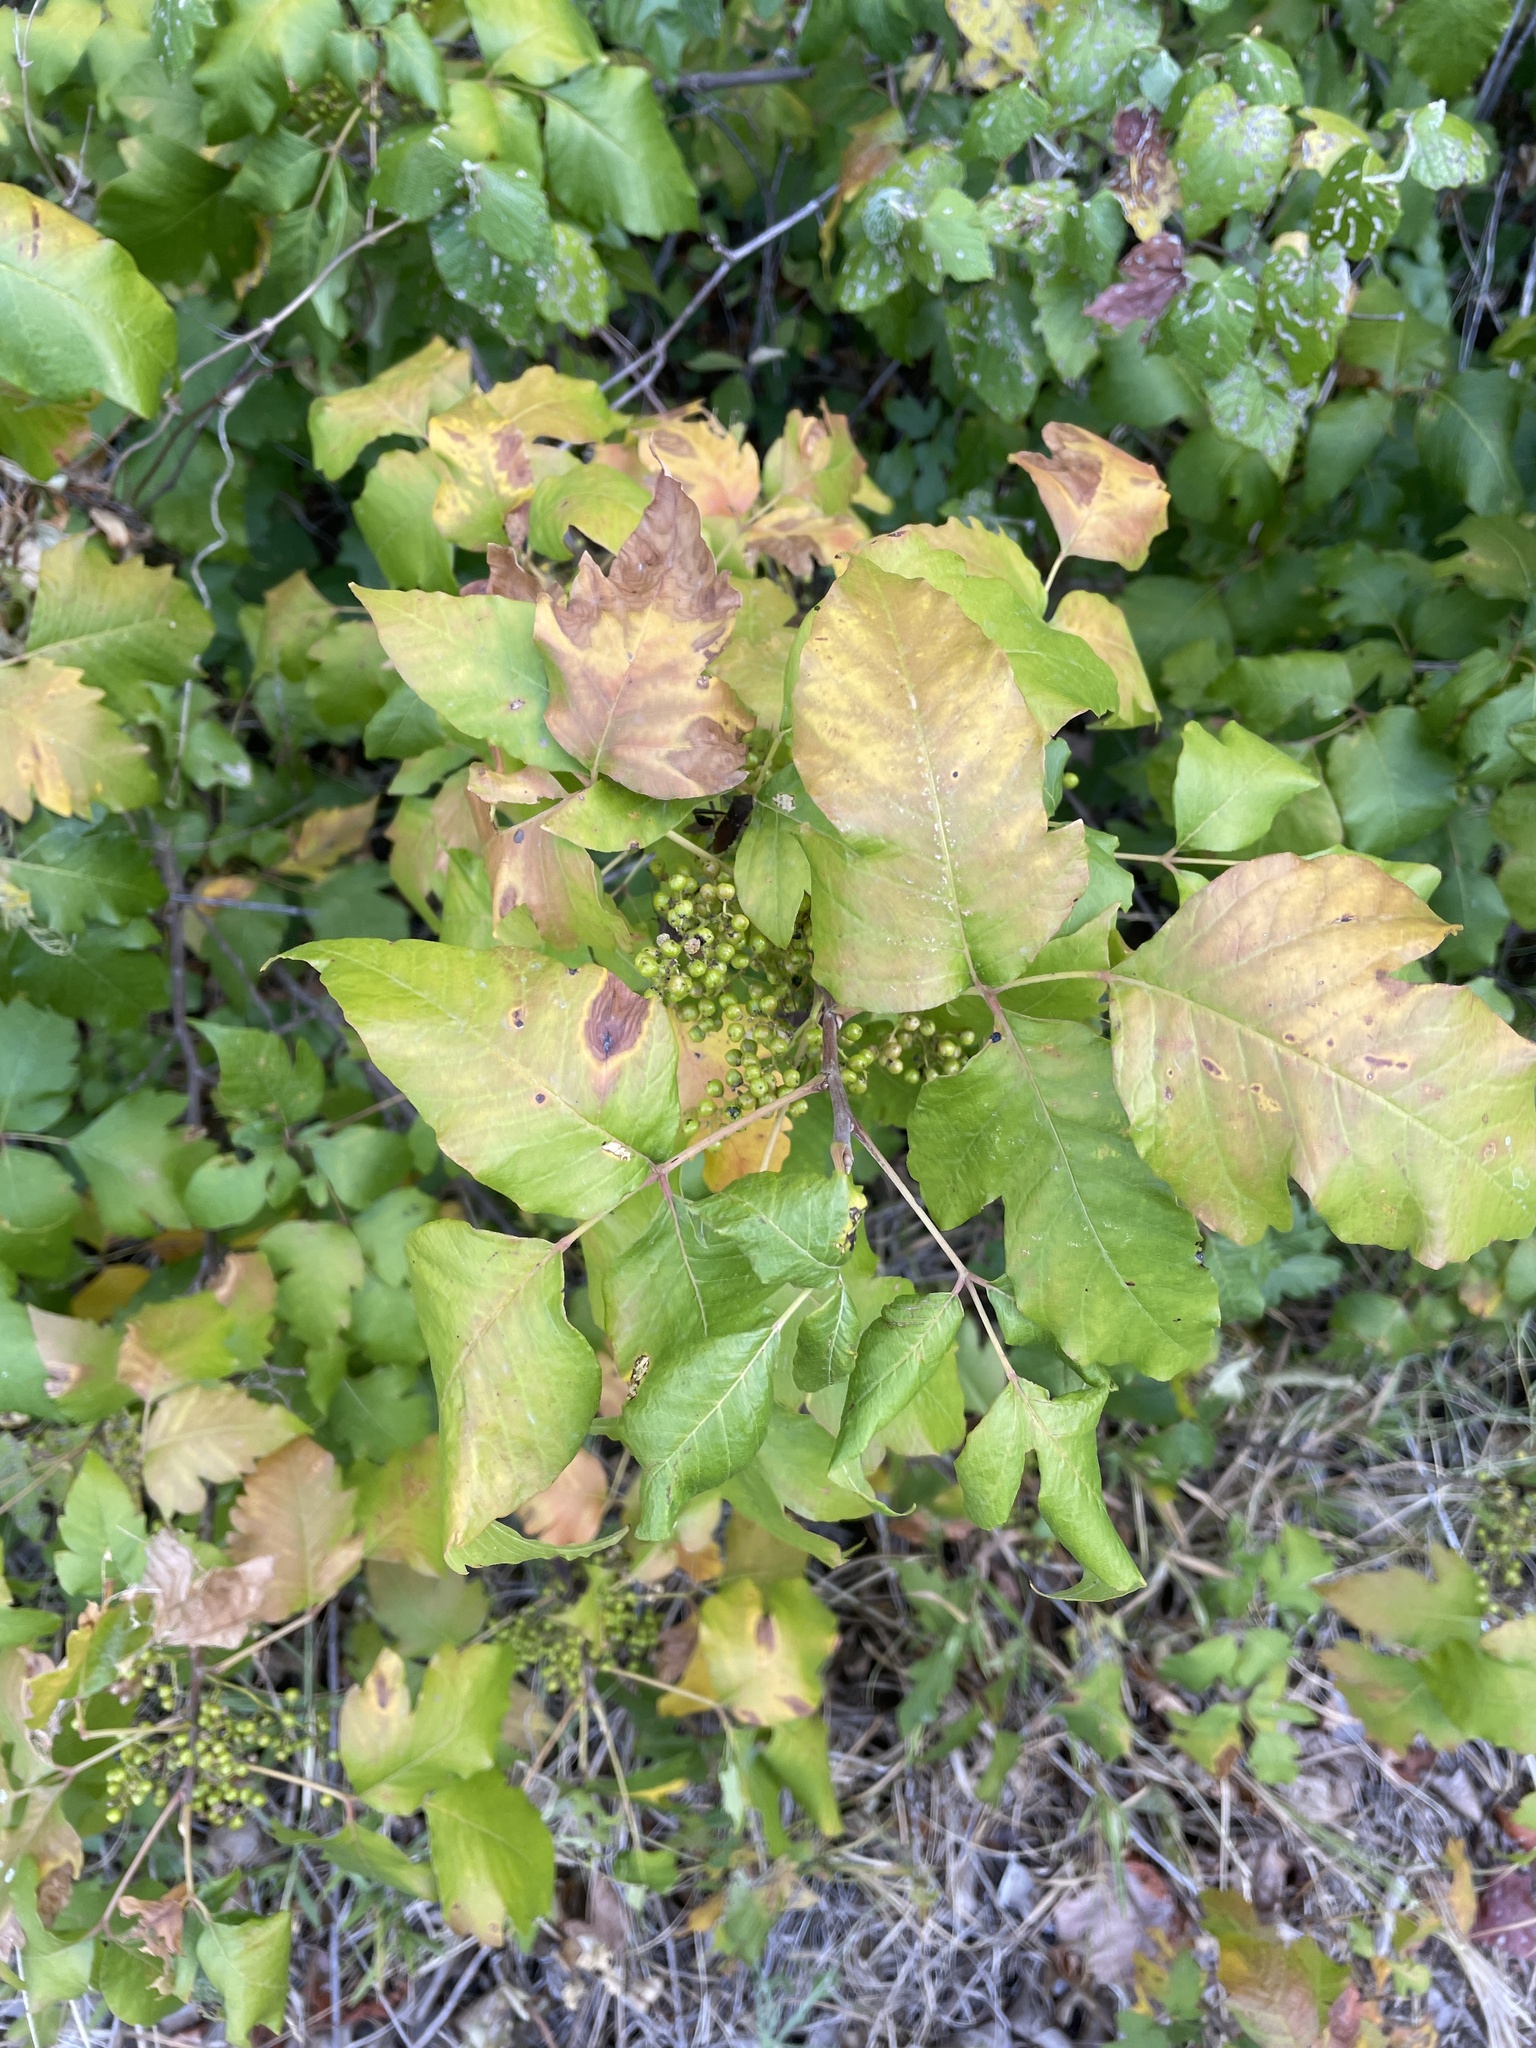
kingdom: Plantae
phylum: Tracheophyta
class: Magnoliopsida
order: Sapindales
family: Anacardiaceae
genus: Toxicodendron
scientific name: Toxicodendron radicans
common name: Poison ivy
